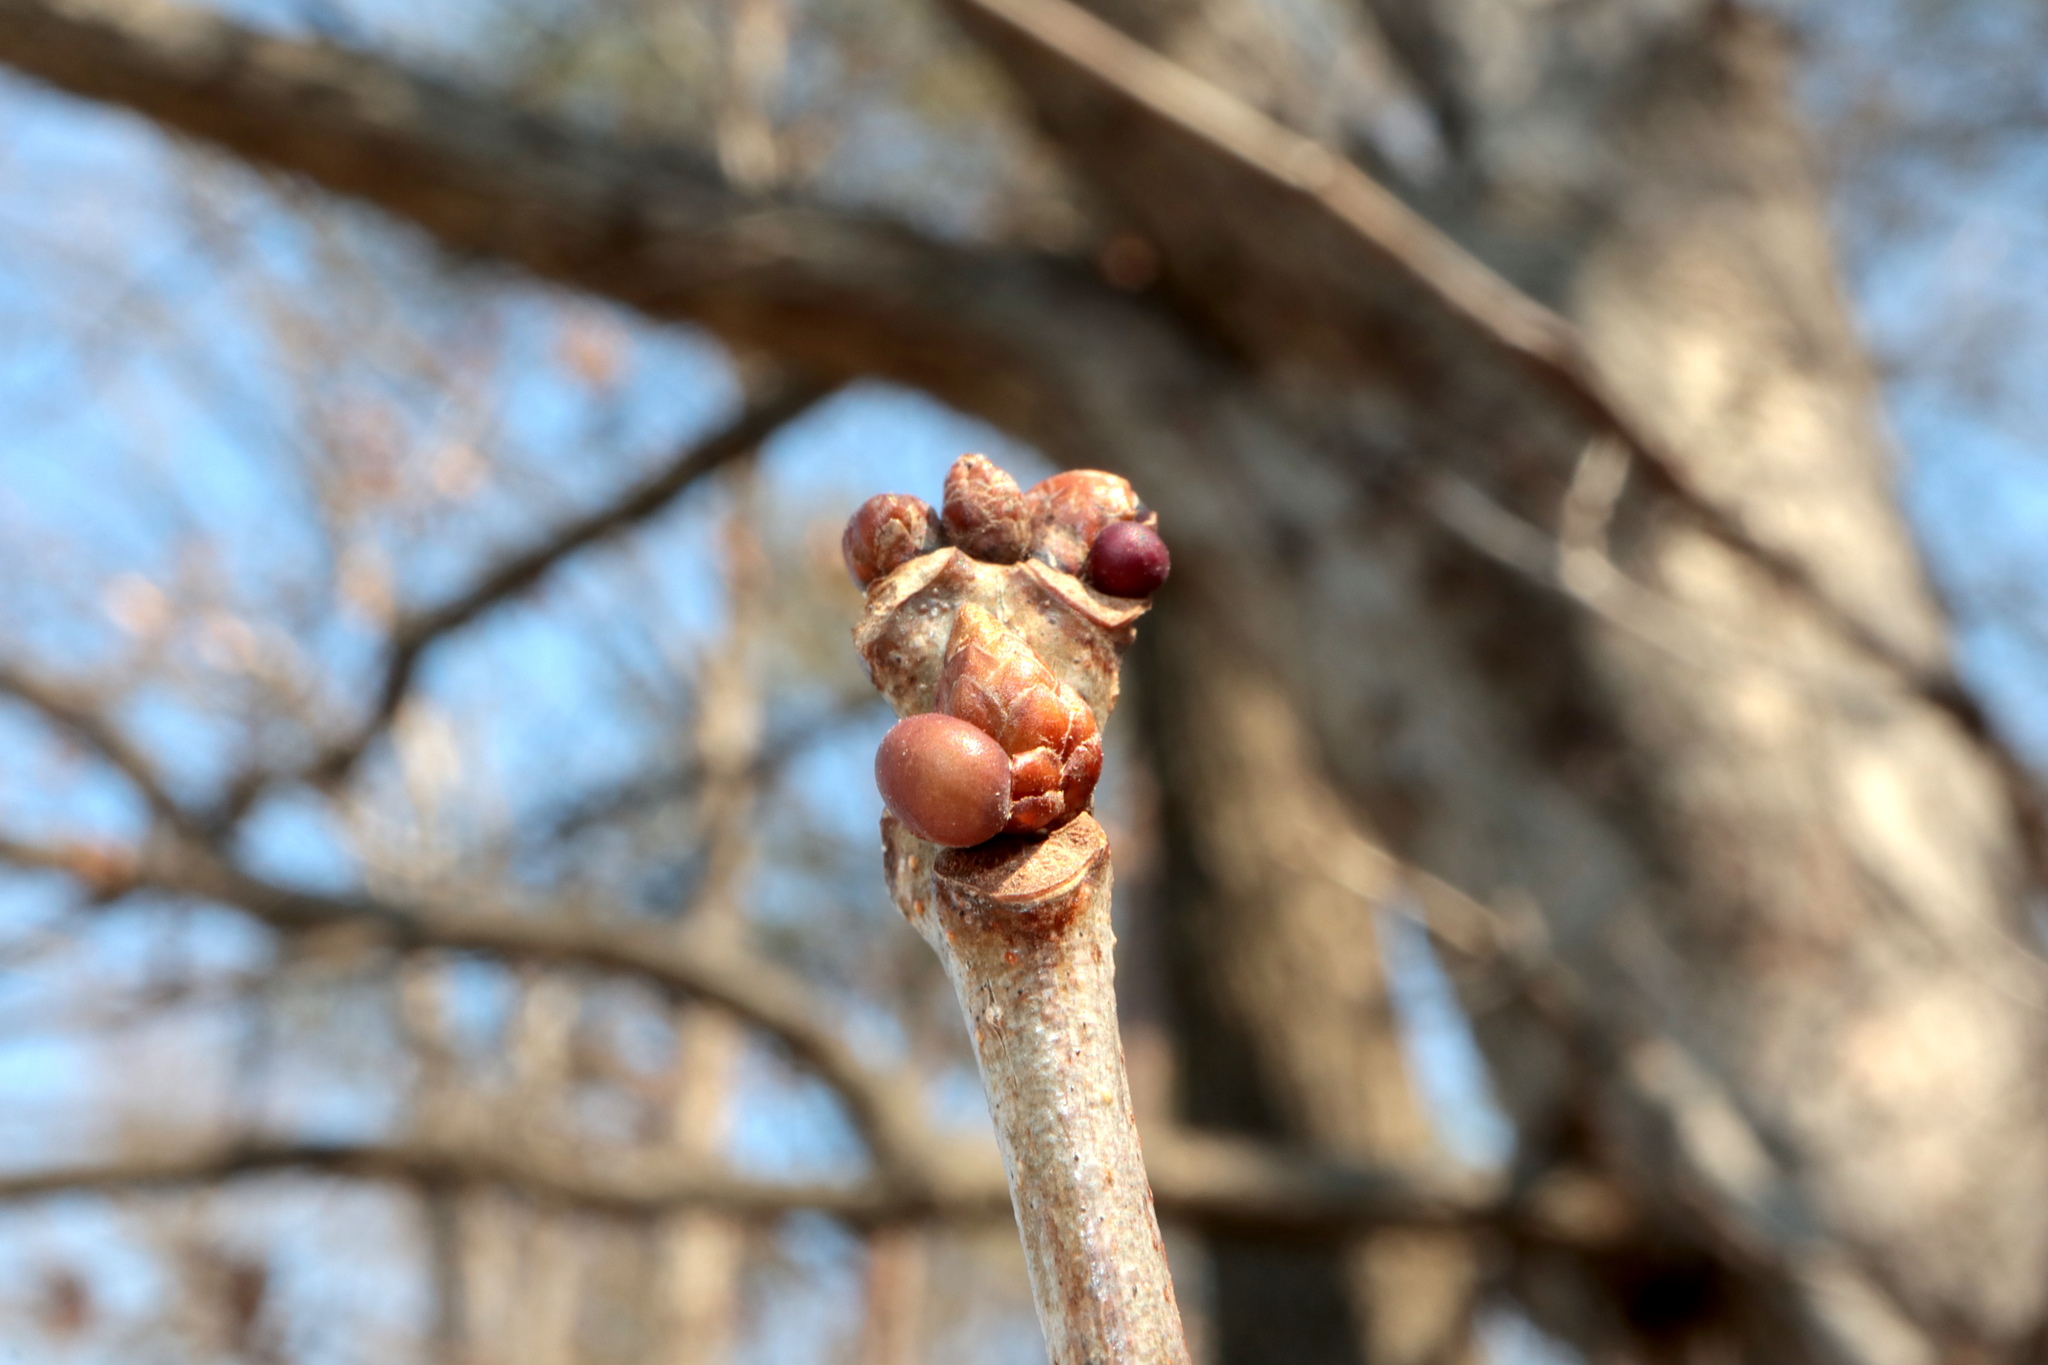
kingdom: Animalia
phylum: Arthropoda
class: Insecta
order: Hymenoptera
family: Cynipidae
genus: Neuroterus
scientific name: Neuroterus
